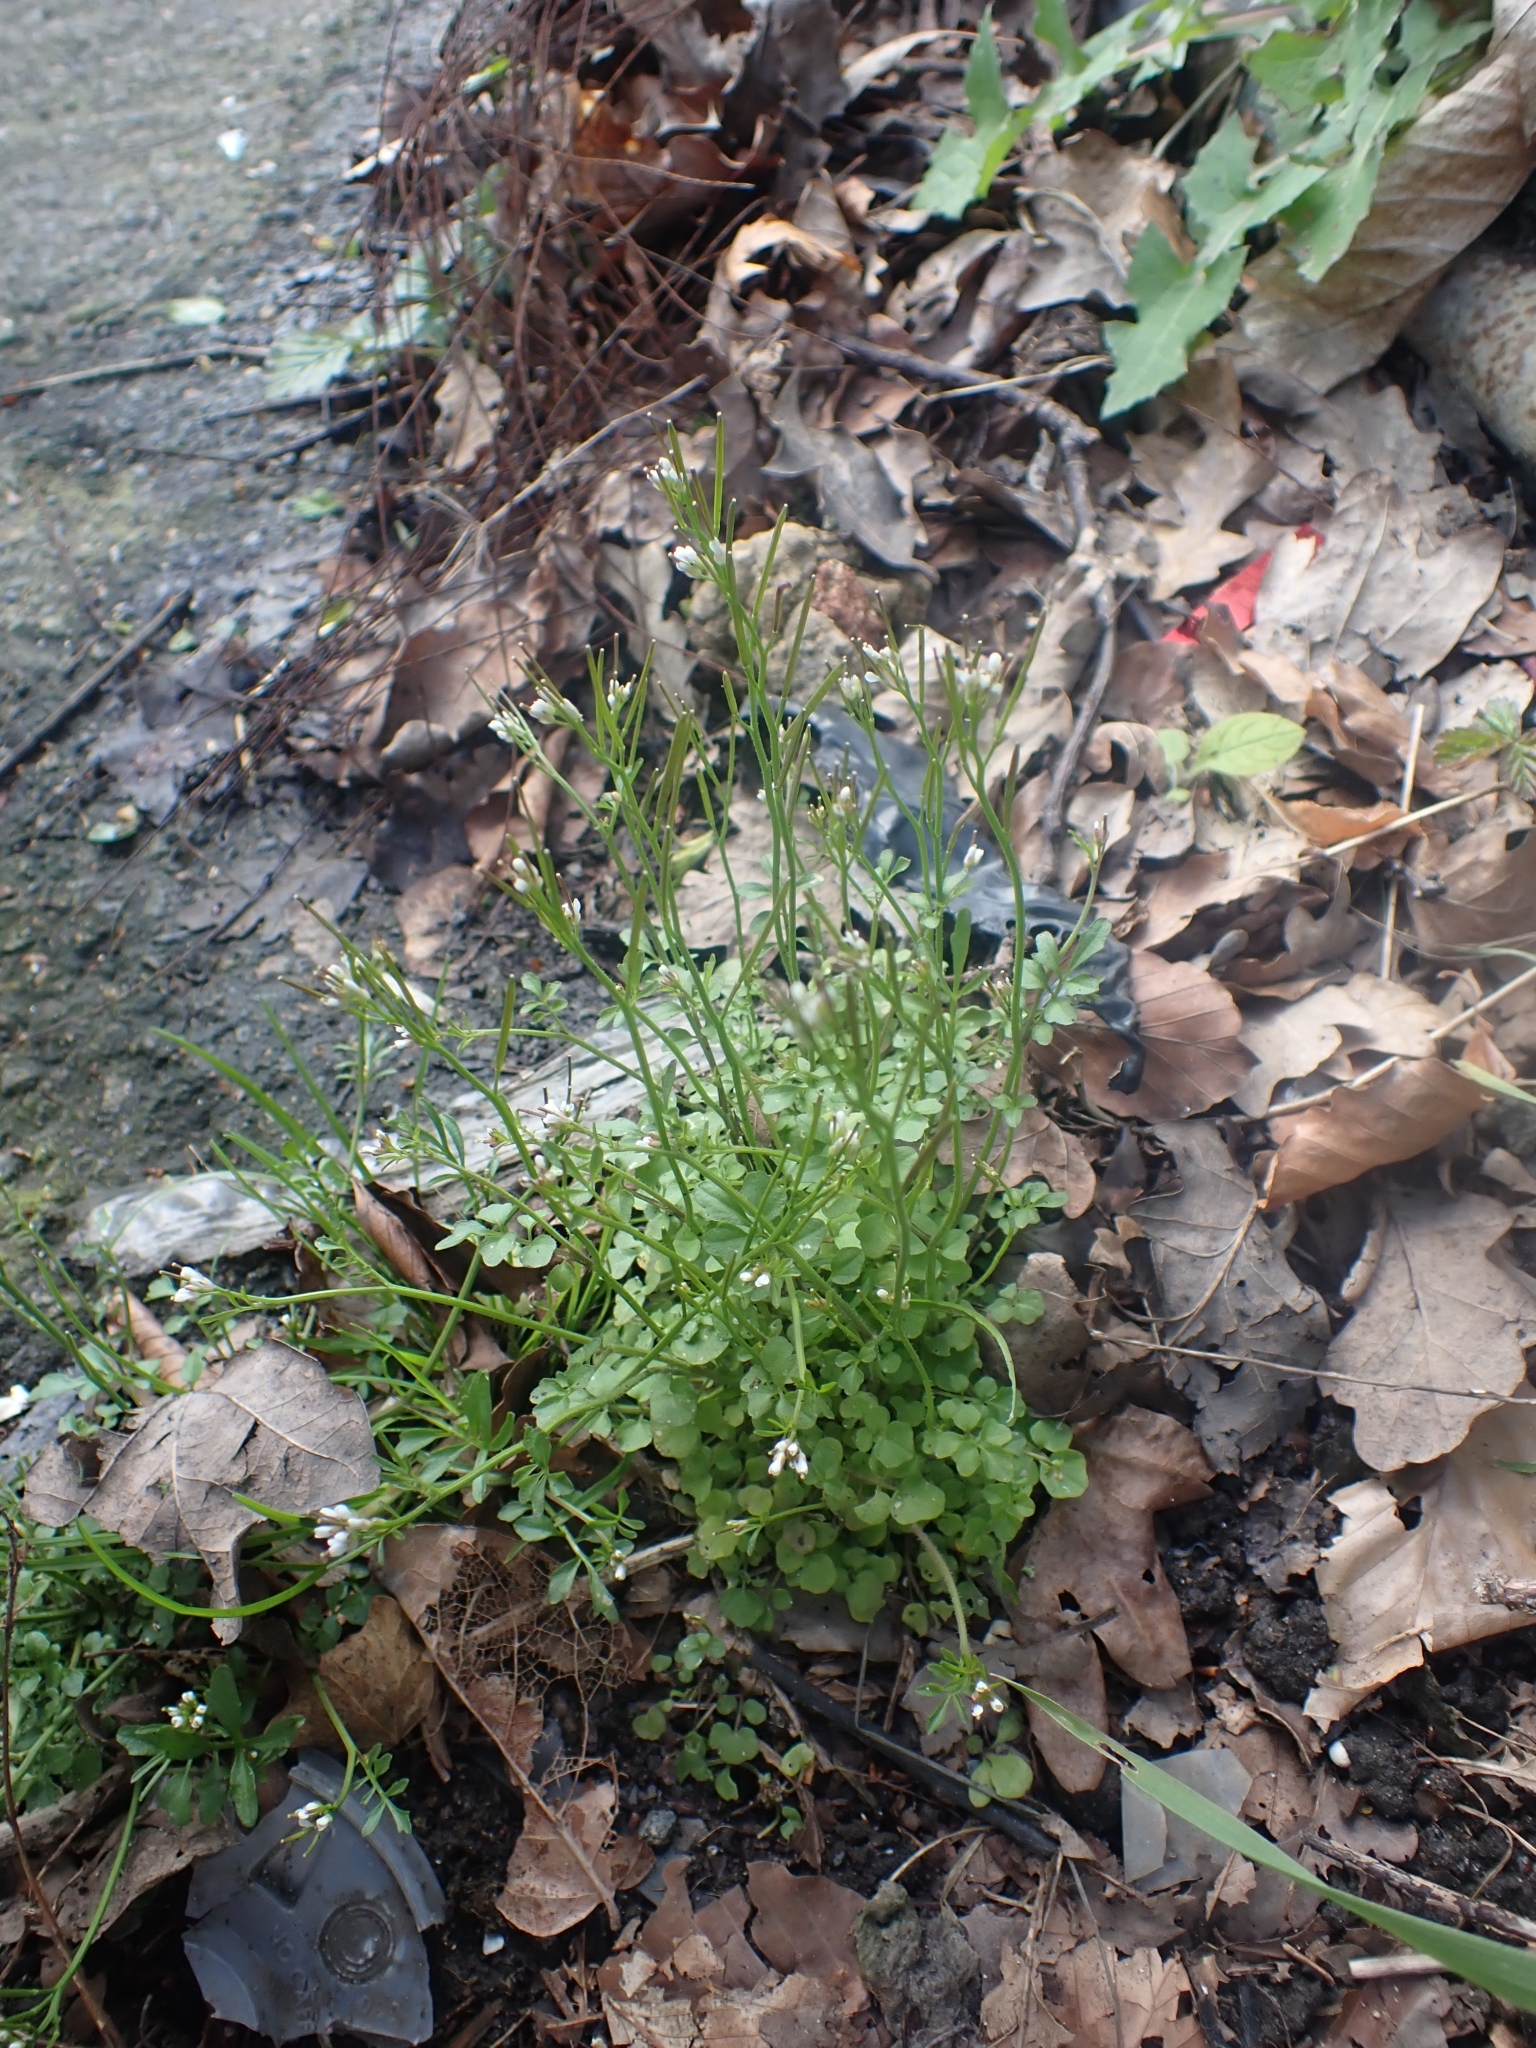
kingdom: Plantae
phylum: Tracheophyta
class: Magnoliopsida
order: Brassicales
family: Brassicaceae
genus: Cardamine
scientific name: Cardamine flexuosa
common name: Woodland bittercress
